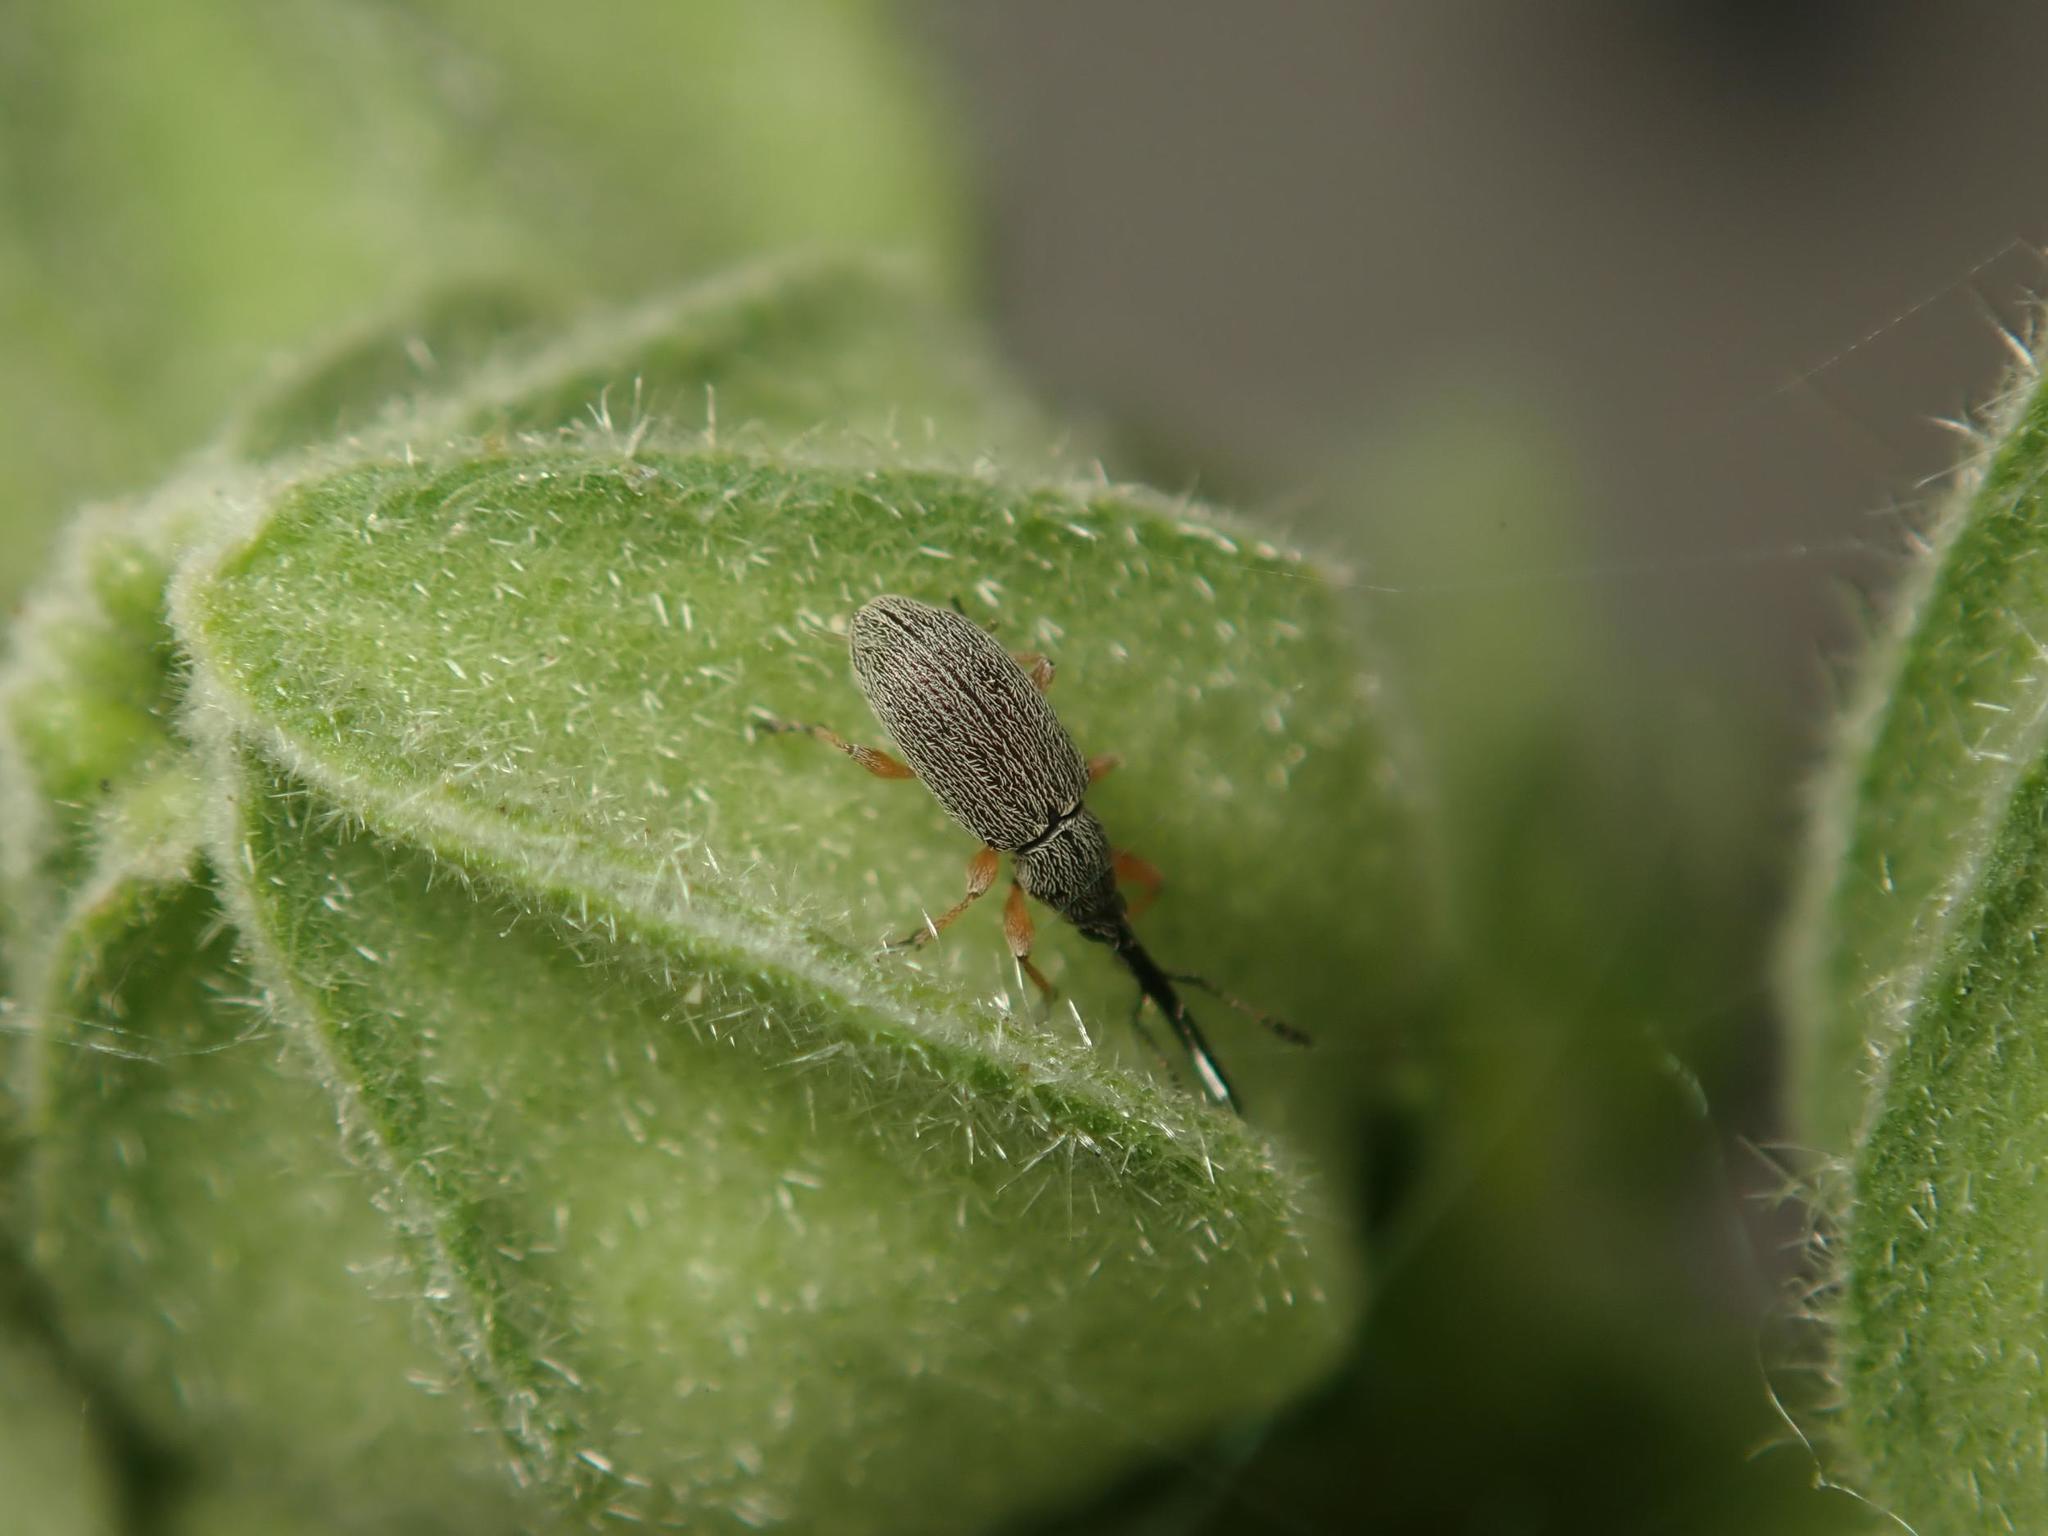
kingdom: Animalia
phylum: Arthropoda
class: Insecta
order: Coleoptera
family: Brentidae
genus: Rhopalapion
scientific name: Rhopalapion longirostre
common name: Hollyhock weevil
